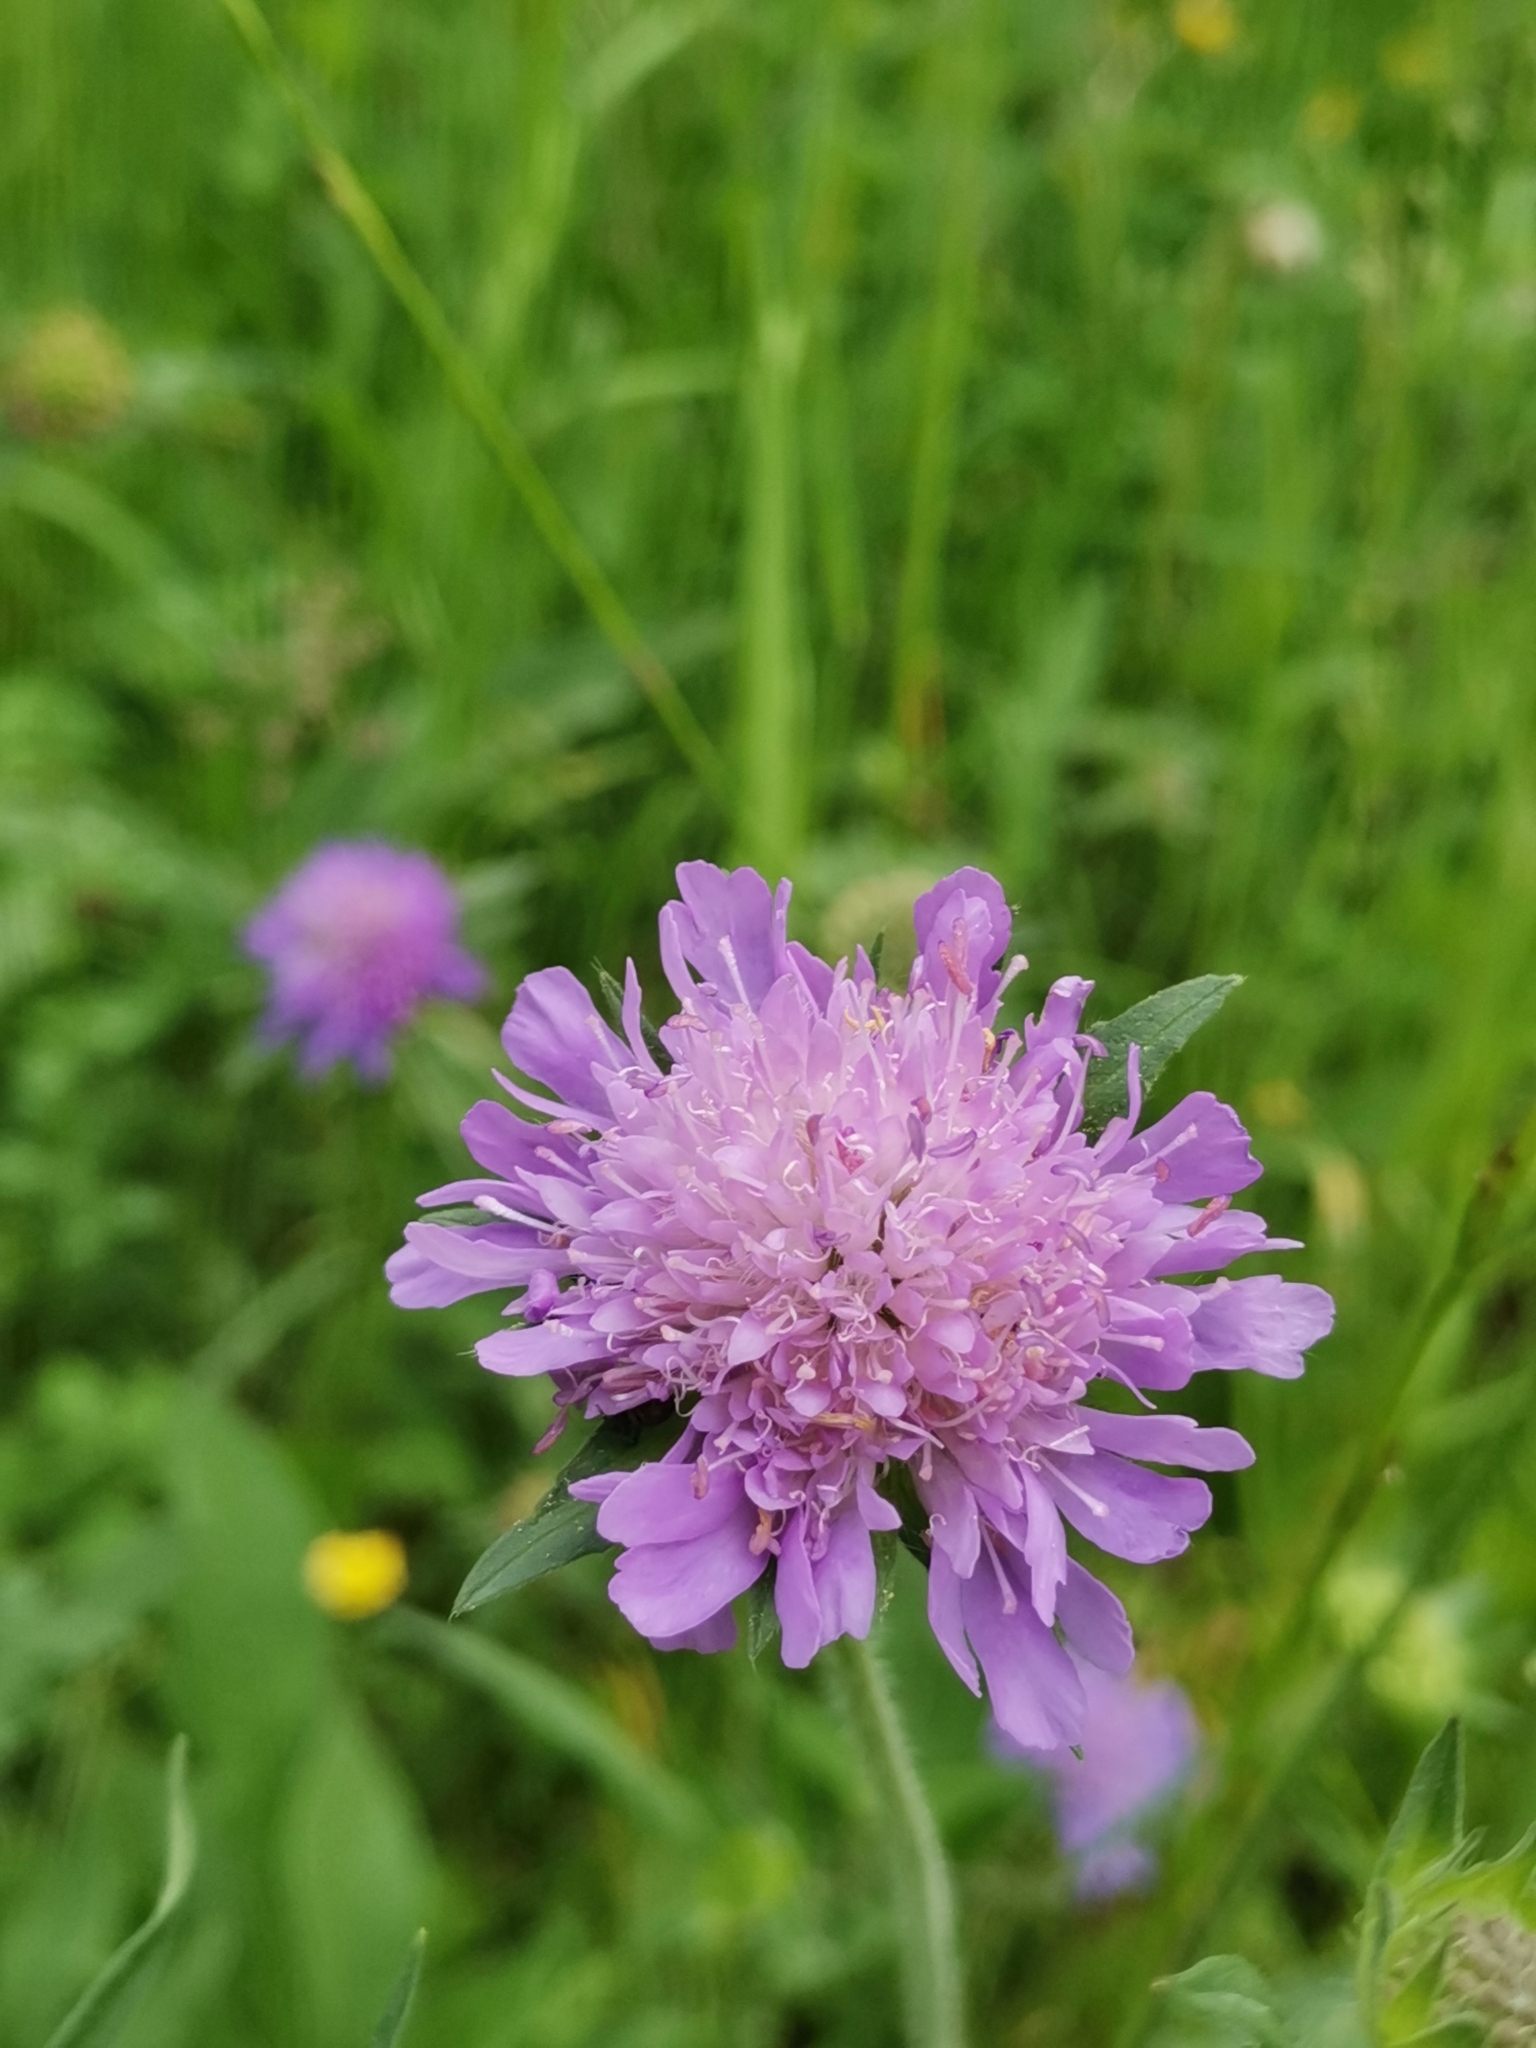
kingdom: Plantae
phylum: Tracheophyta
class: Magnoliopsida
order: Dipsacales
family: Caprifoliaceae
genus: Knautia
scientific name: Knautia arvensis
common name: Field scabiosa
